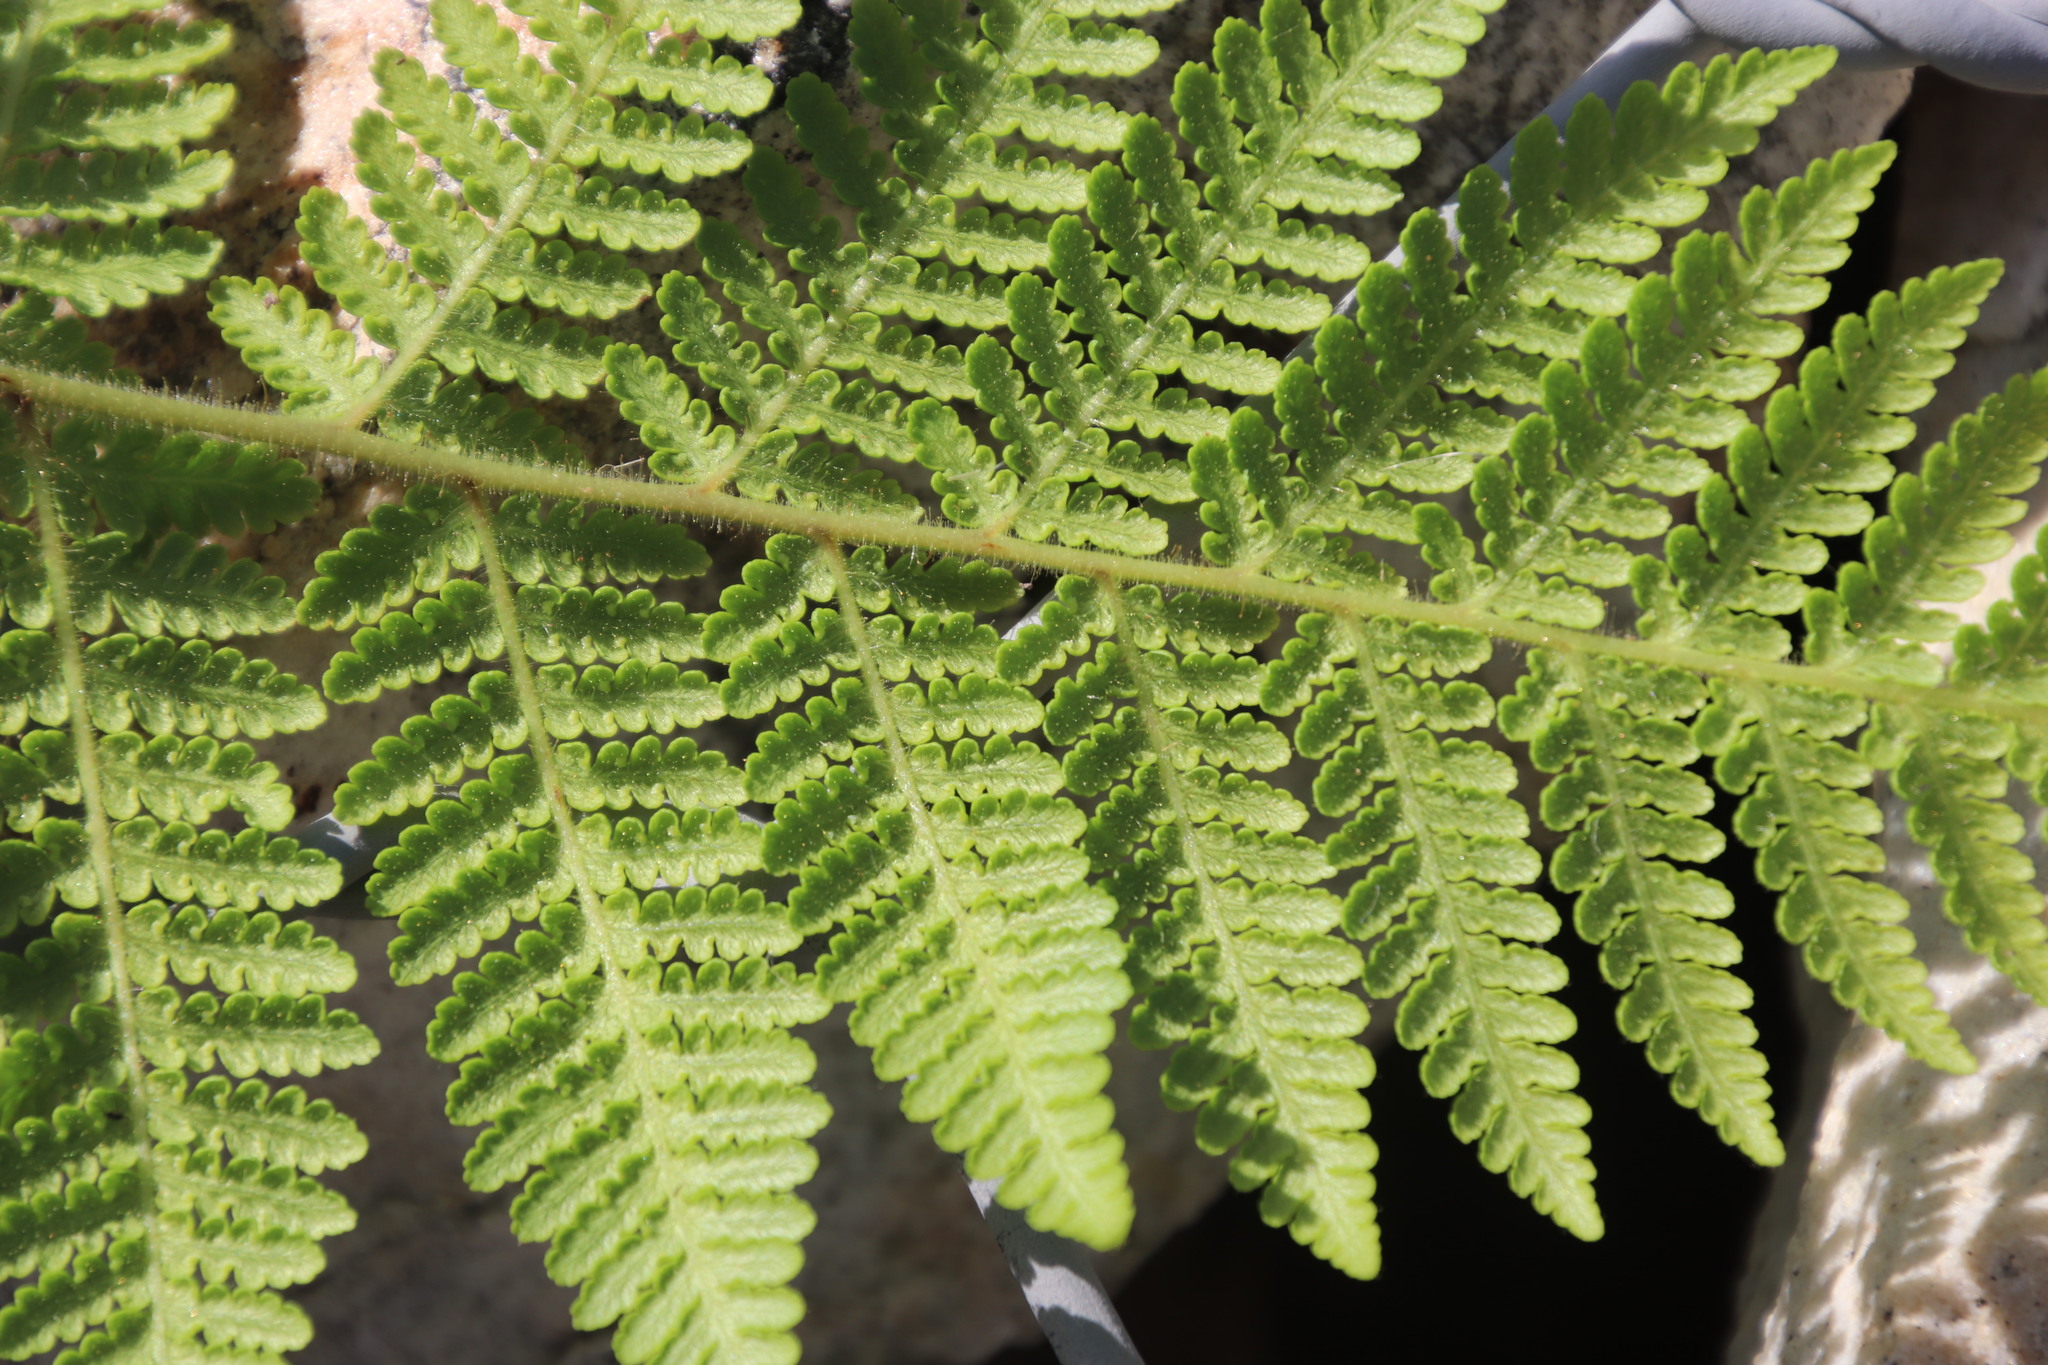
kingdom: Plantae
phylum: Tracheophyta
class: Polypodiopsida
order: Polypodiales
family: Dennstaedtiaceae
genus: Hypolepis
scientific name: Hypolepis rugosula
